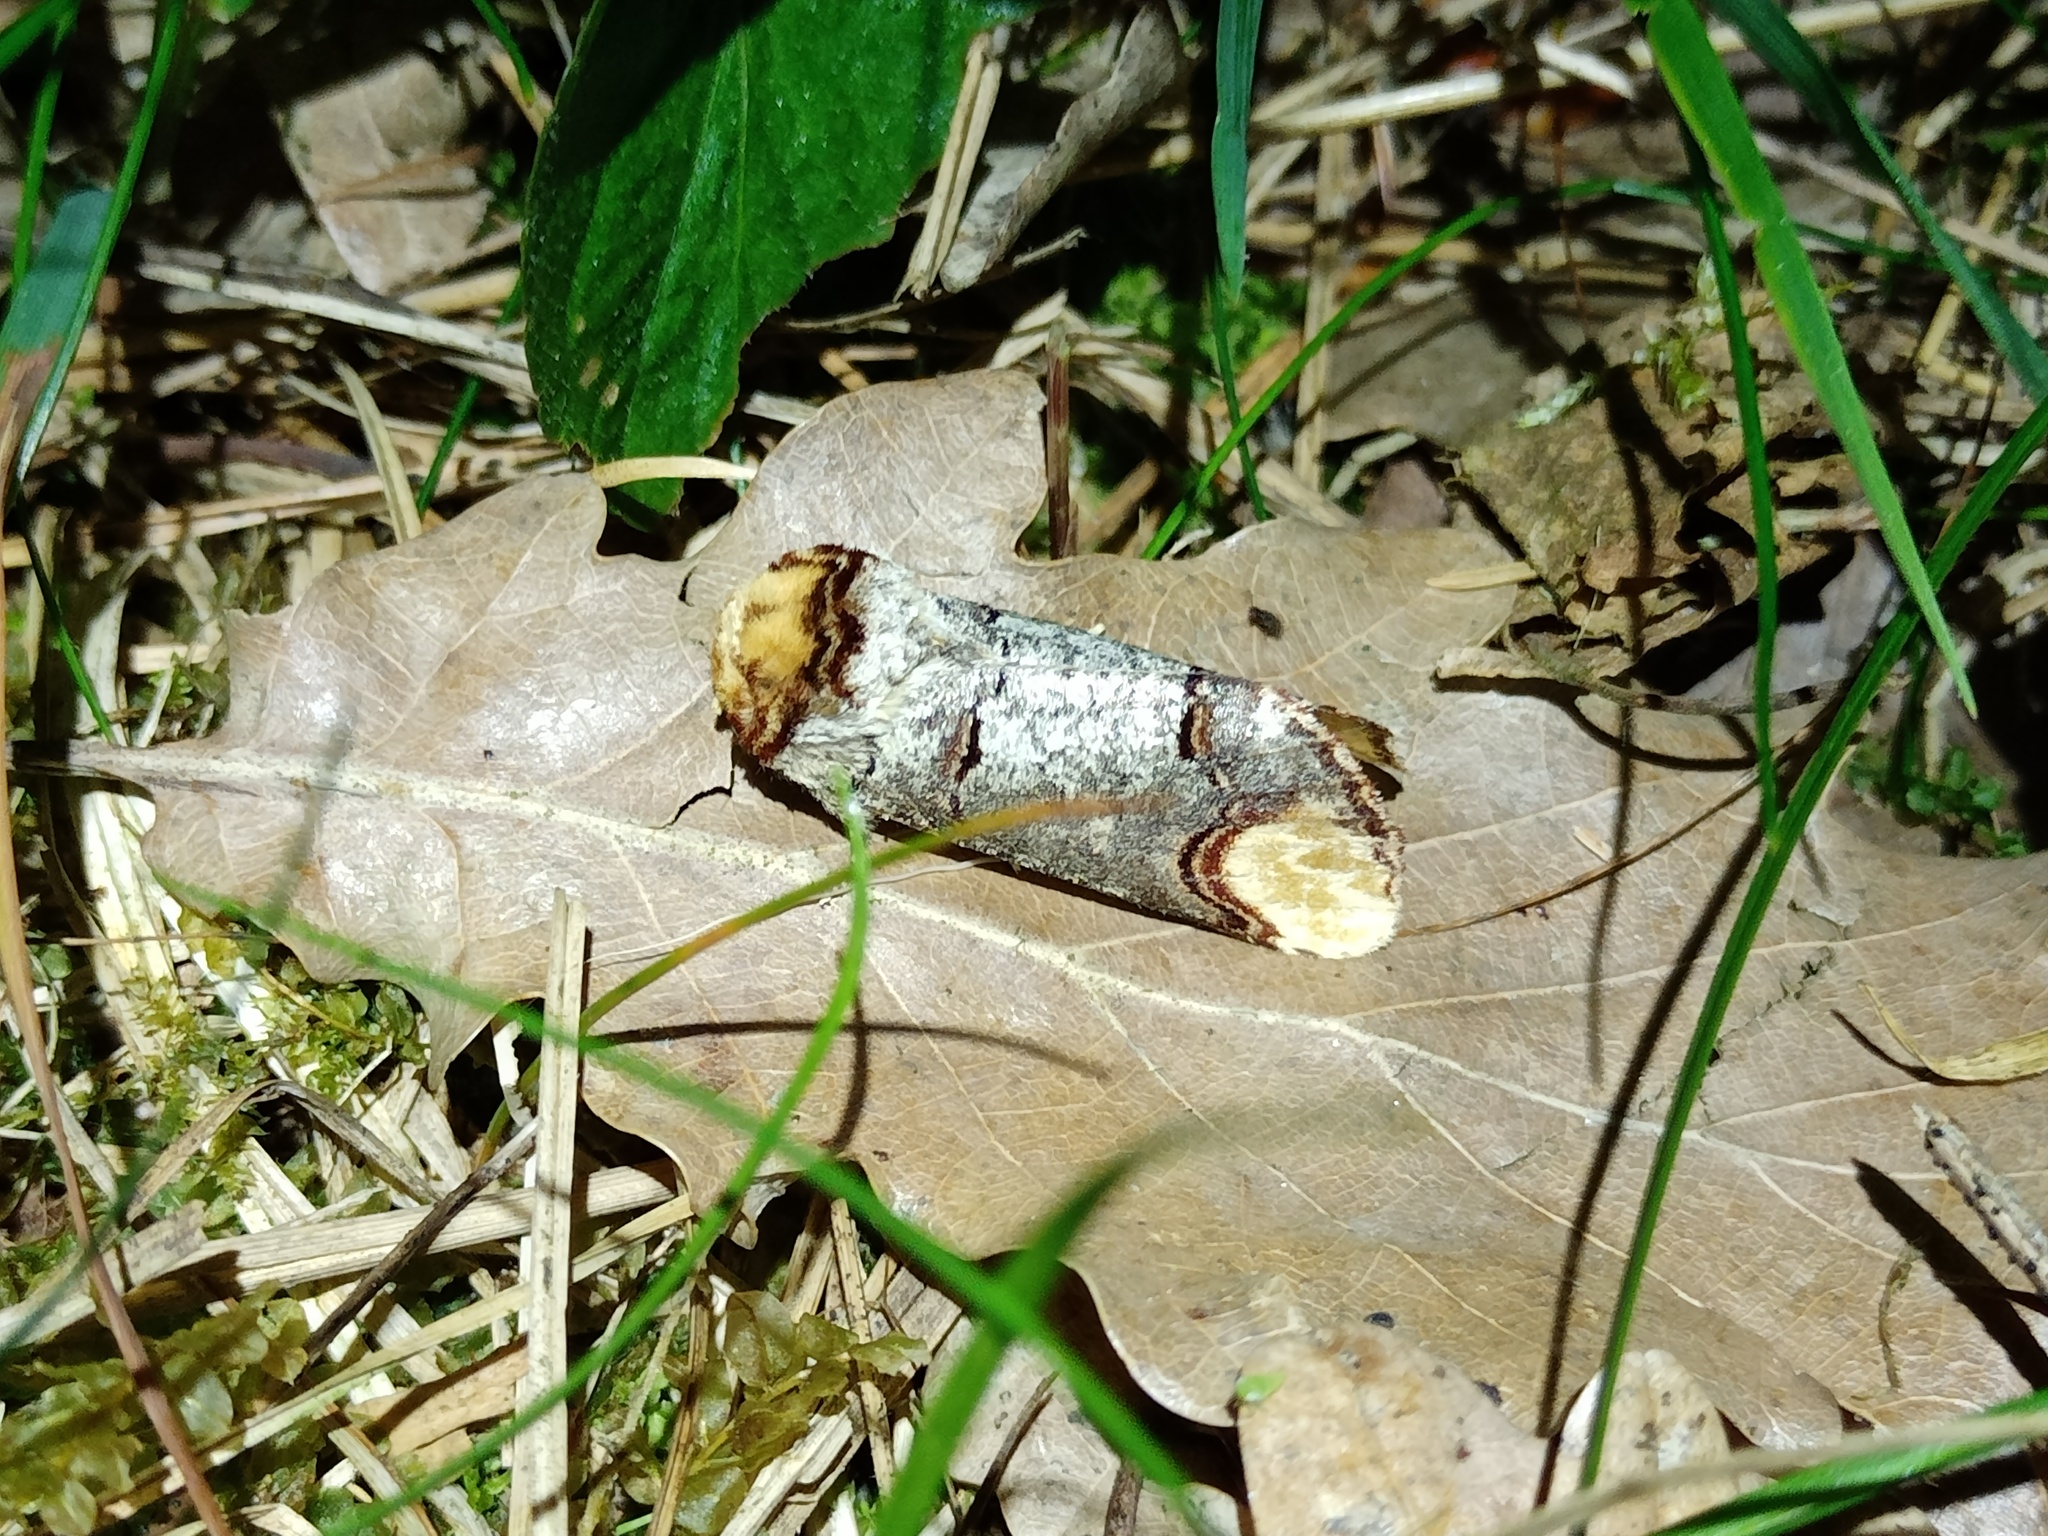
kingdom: Animalia
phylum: Arthropoda
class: Insecta
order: Lepidoptera
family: Notodontidae
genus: Phalera
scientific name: Phalera bucephala
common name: Buff-tip
